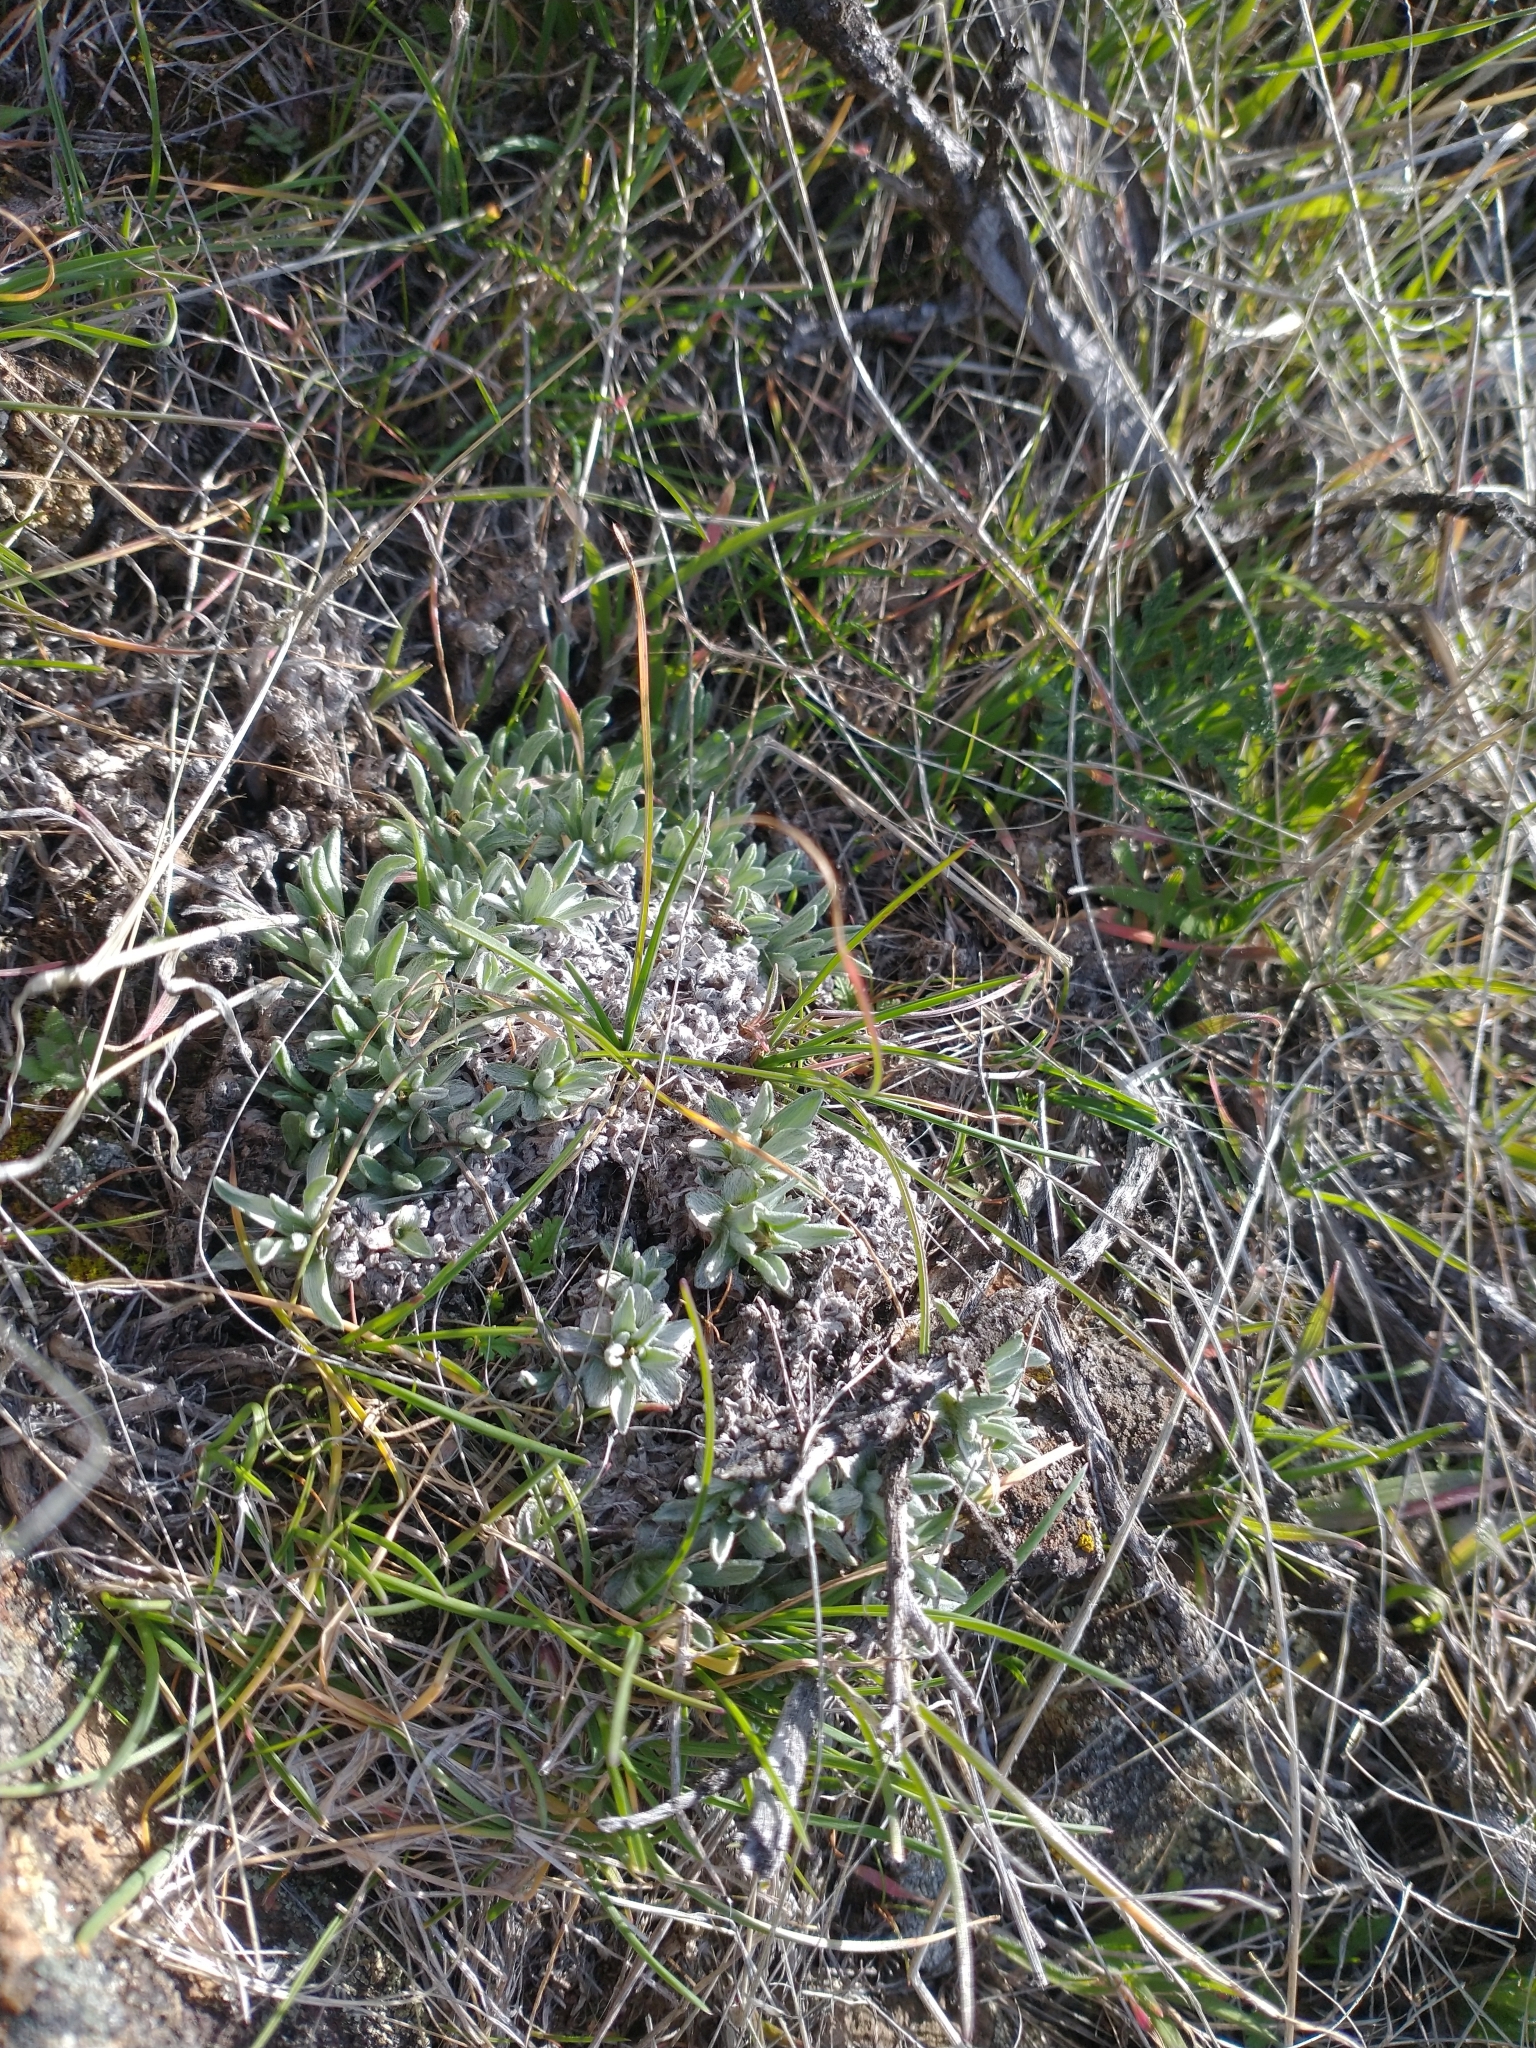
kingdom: Plantae
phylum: Tracheophyta
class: Magnoliopsida
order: Asterales
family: Asteraceae
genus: Antennaria
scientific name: Antennaria dimorpha
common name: Cushion pussytoes
